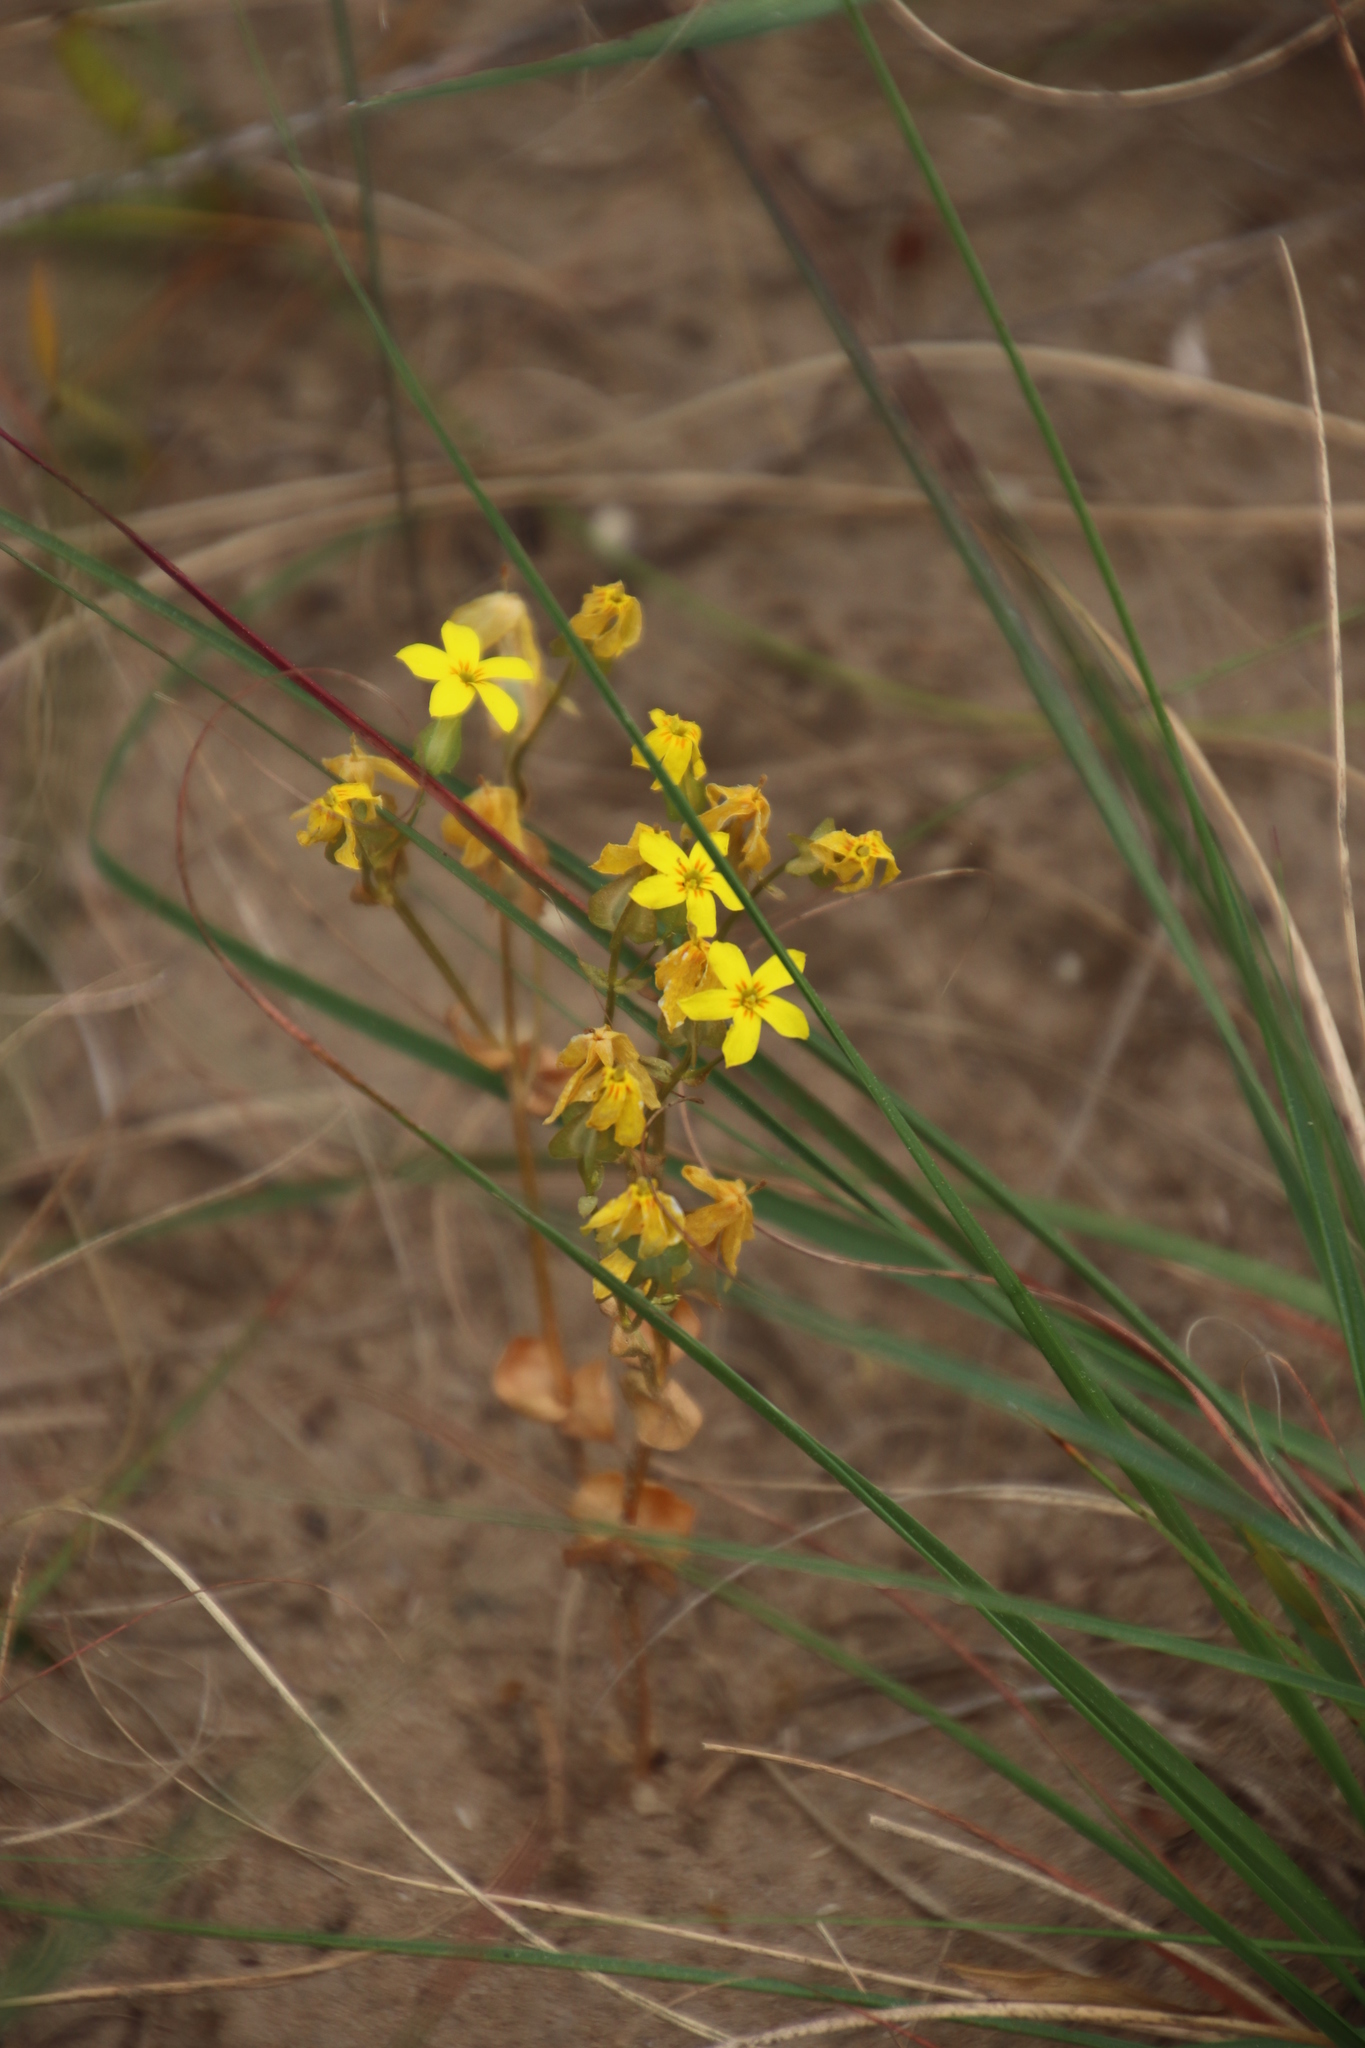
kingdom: Plantae
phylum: Tracheophyta
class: Magnoliopsida
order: Gentianales
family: Gentianaceae
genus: Sebaea
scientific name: Sebaea exacoides
